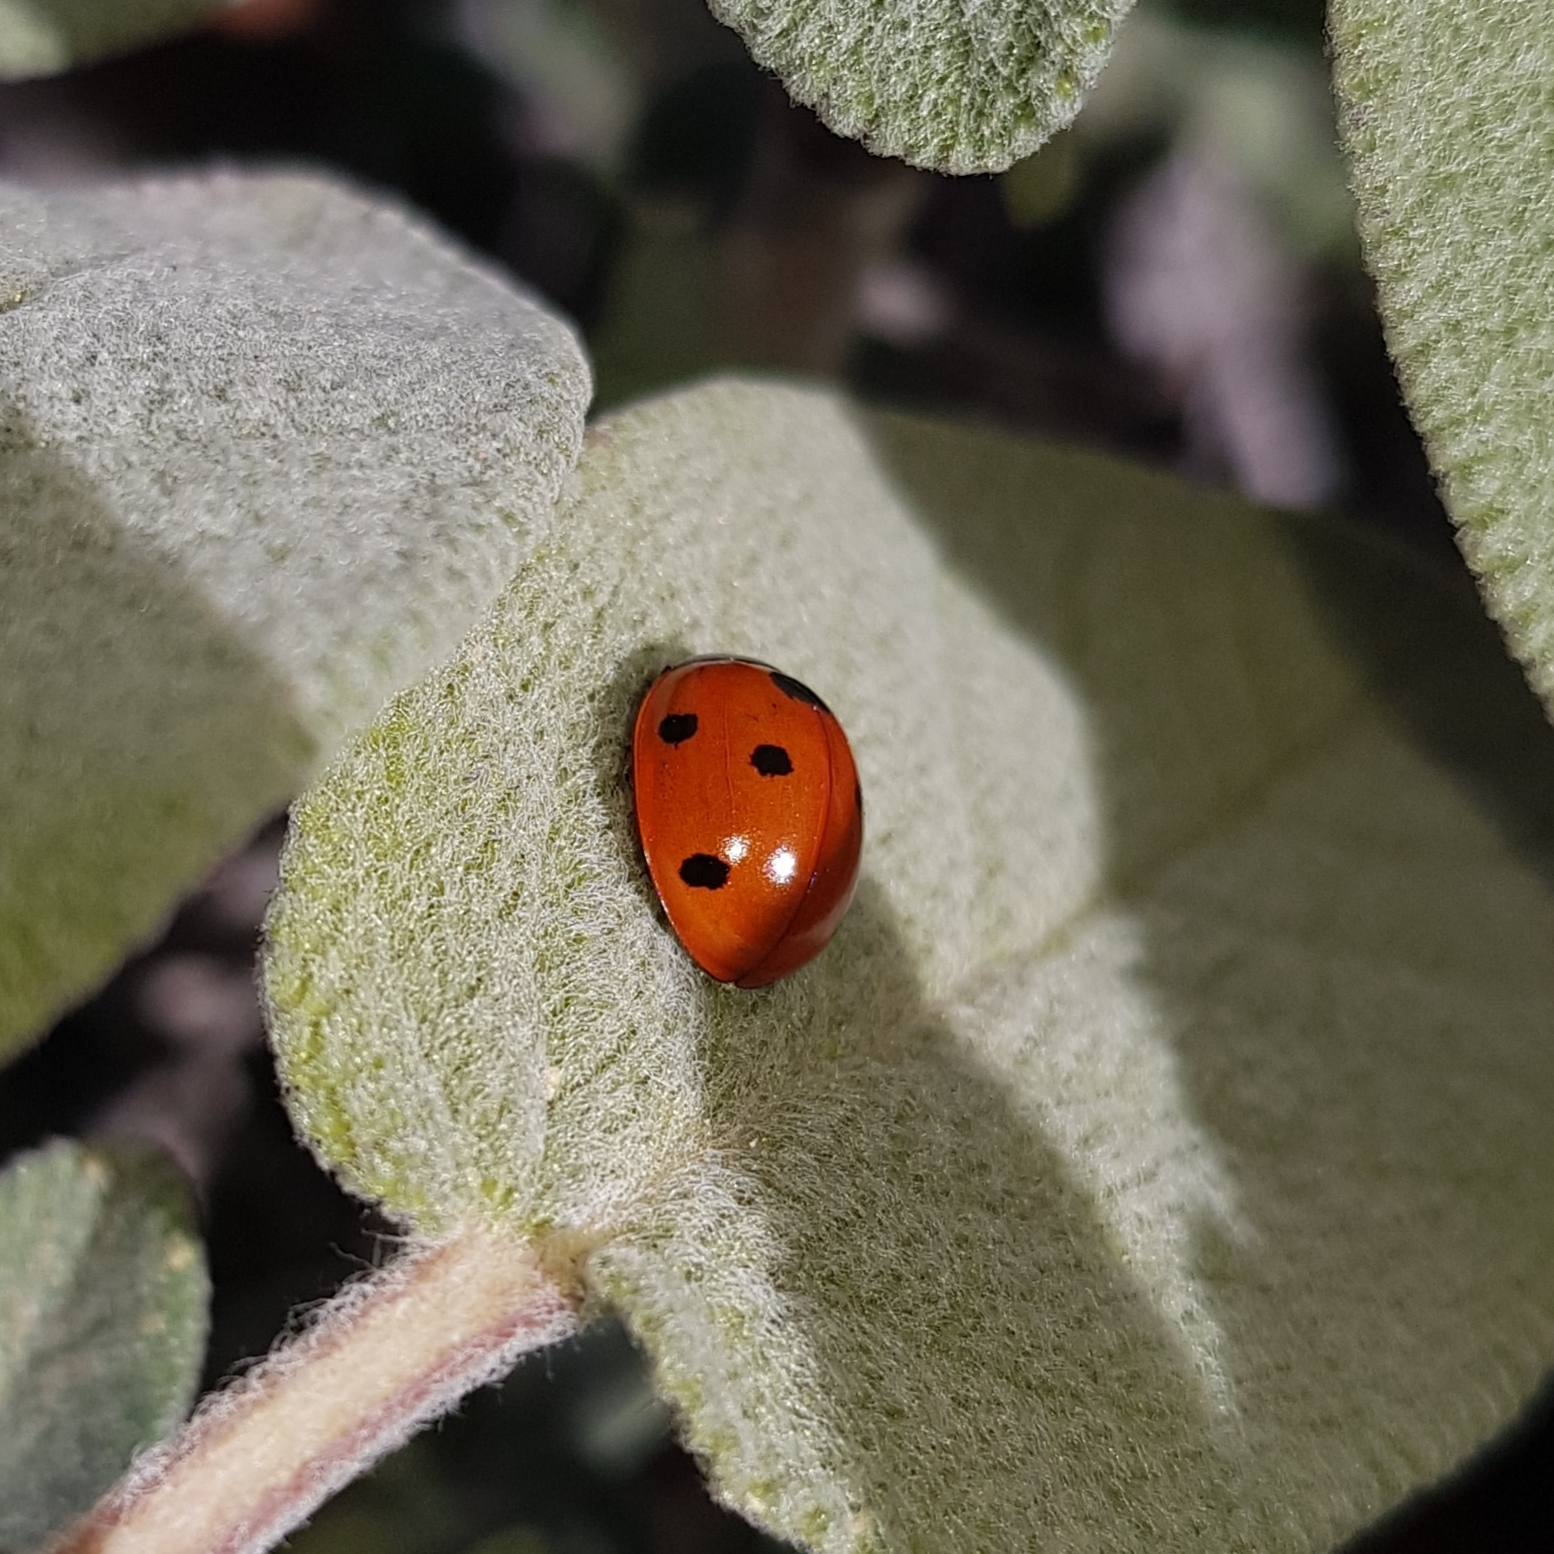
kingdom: Animalia
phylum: Arthropoda
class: Insecta
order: Coleoptera
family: Coccinellidae
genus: Coccinella
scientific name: Coccinella septempunctata
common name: Sevenspotted lady beetle
